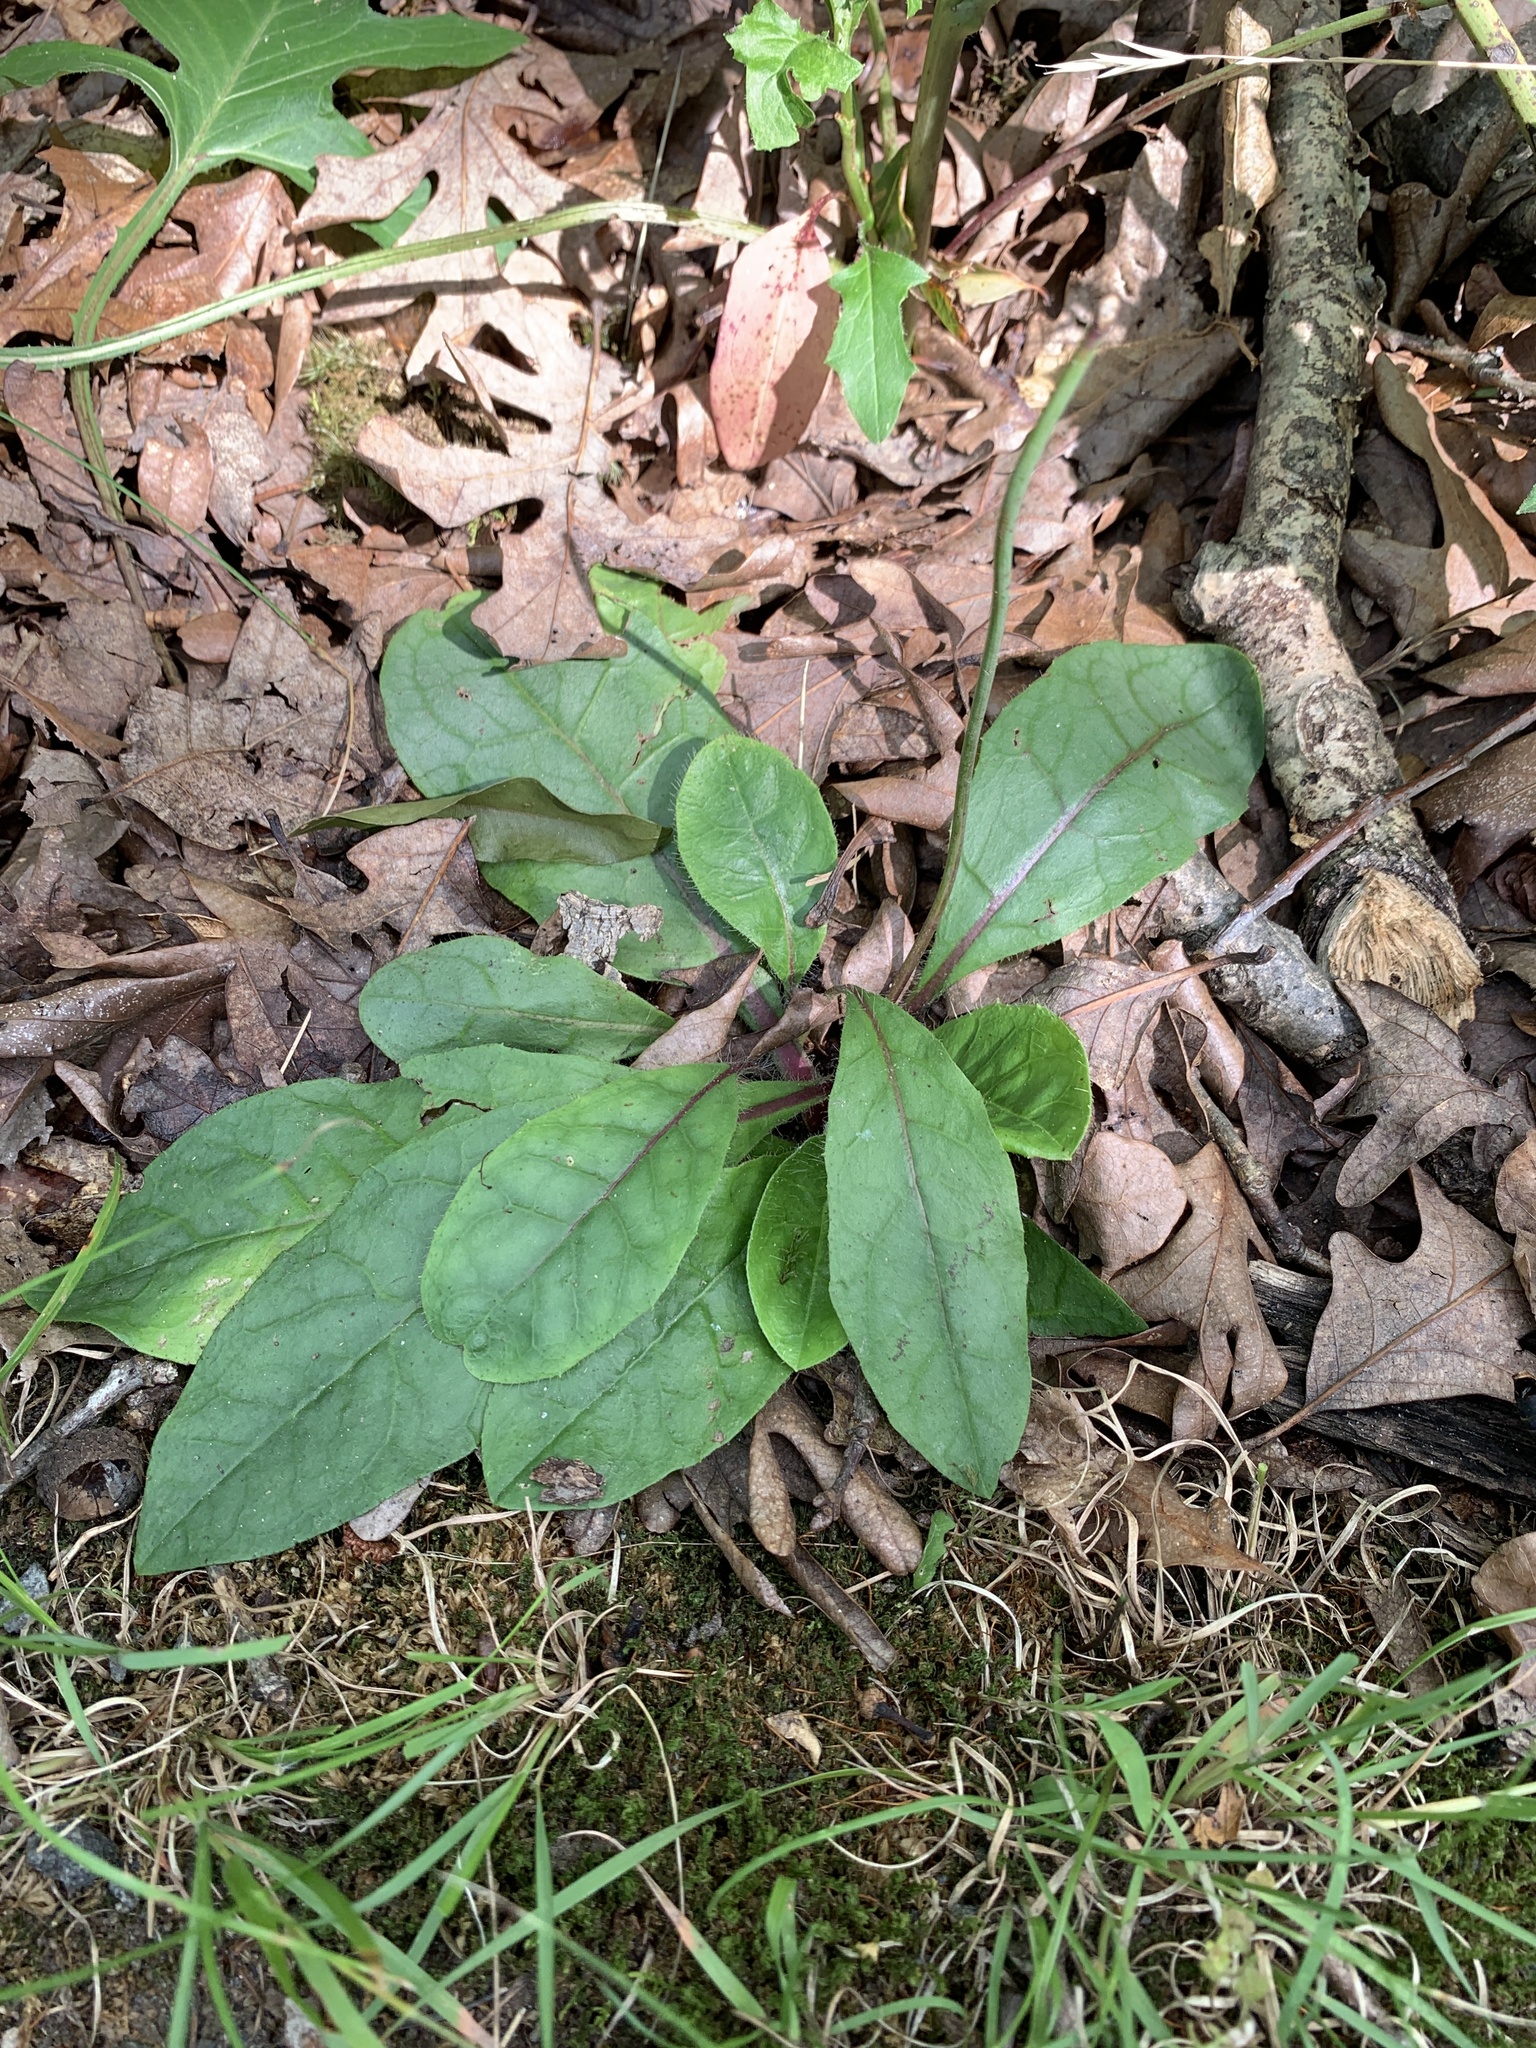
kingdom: Plantae
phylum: Tracheophyta
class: Magnoliopsida
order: Asterales
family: Asteraceae
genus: Hieracium
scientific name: Hieracium venosum
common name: Rattlesnake hawkweed
